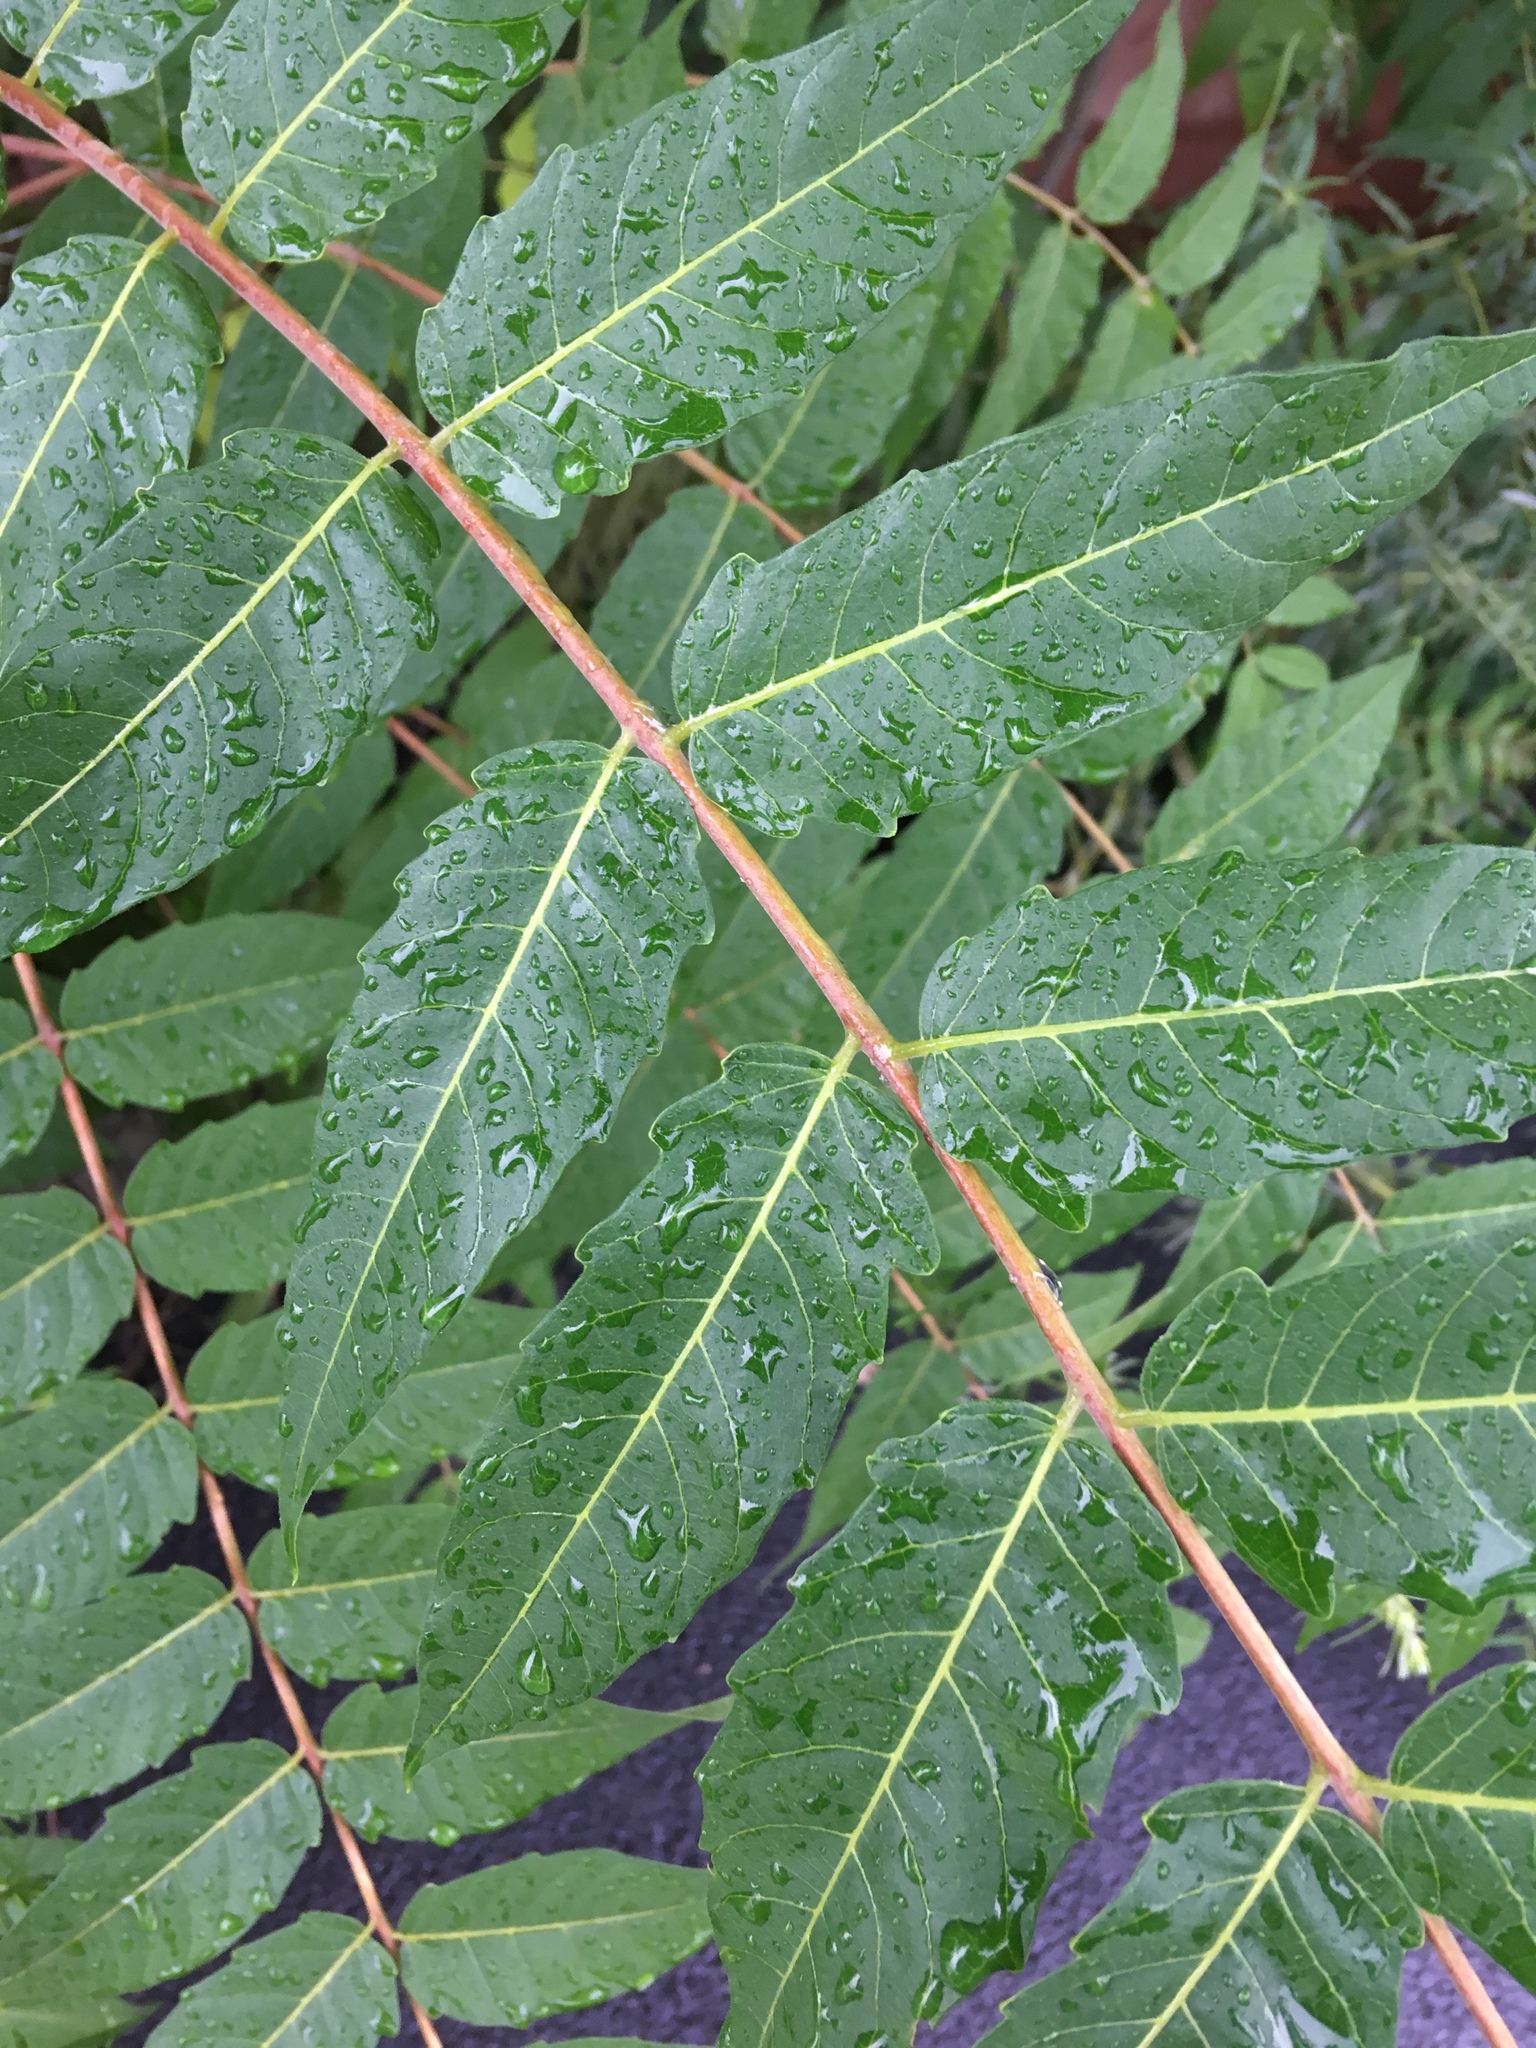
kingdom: Plantae
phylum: Tracheophyta
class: Magnoliopsida
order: Sapindales
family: Simaroubaceae
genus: Ailanthus
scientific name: Ailanthus altissima
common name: Tree-of-heaven
